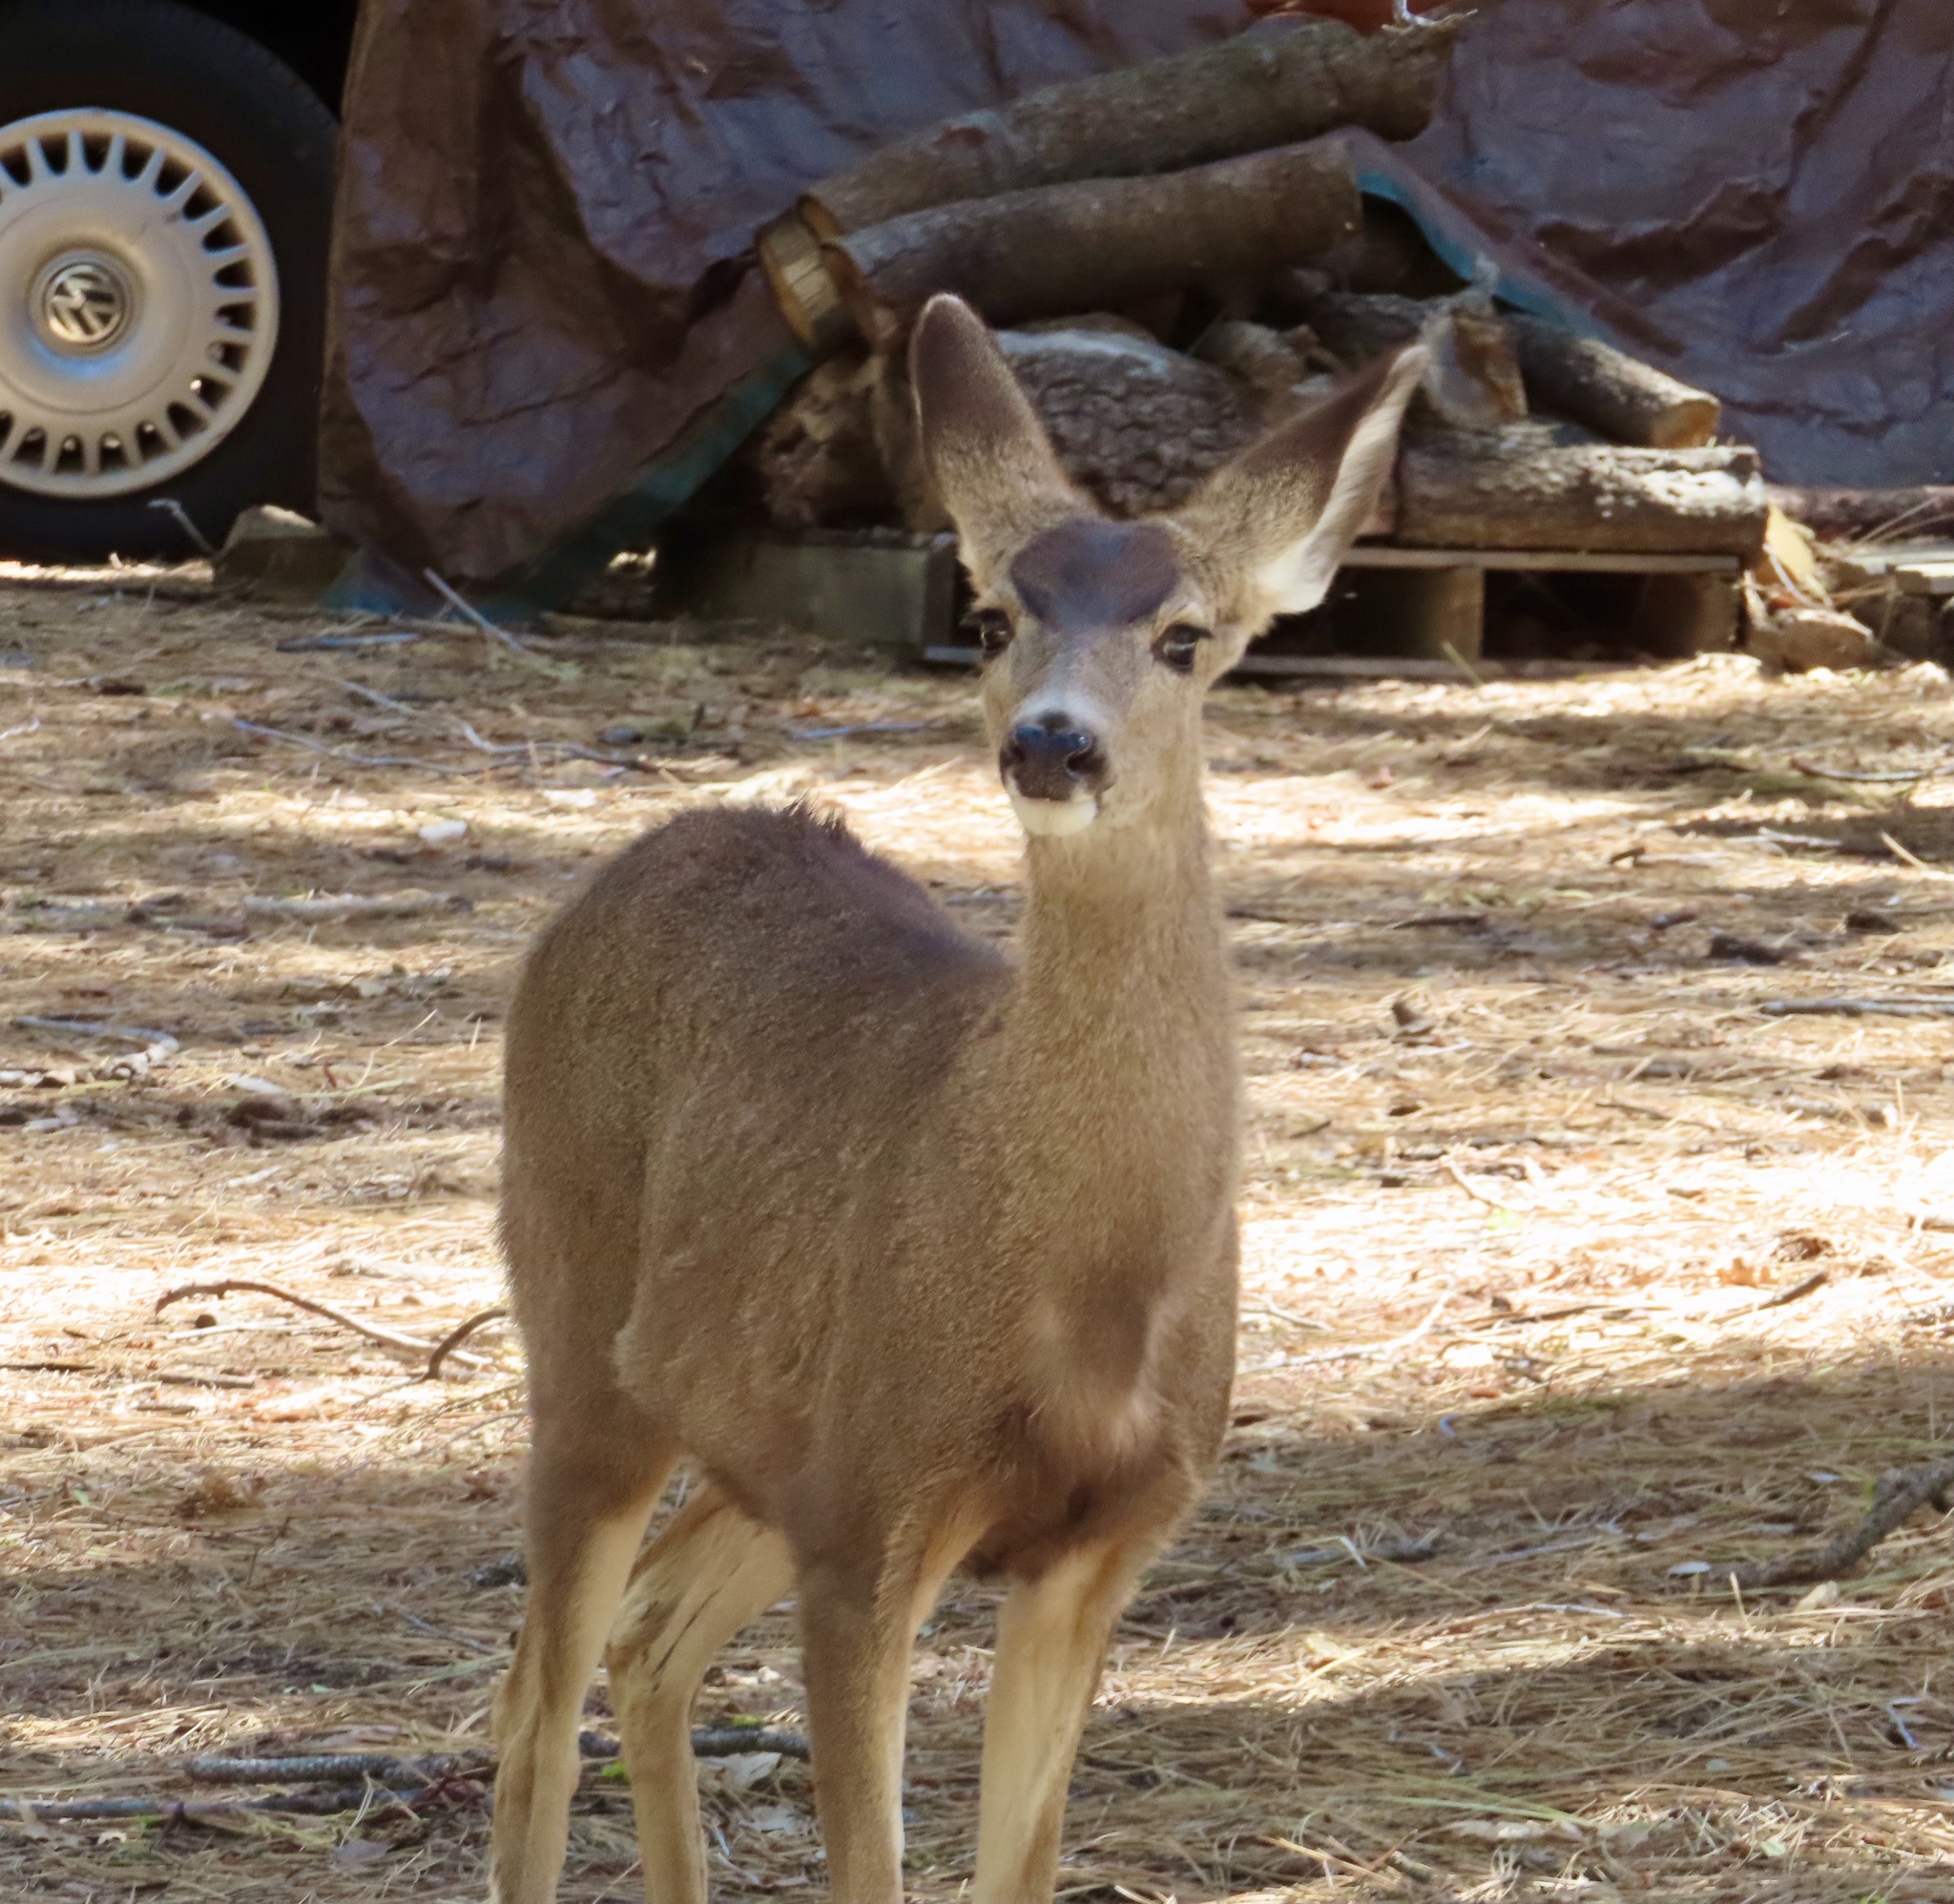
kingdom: Animalia
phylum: Chordata
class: Mammalia
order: Artiodactyla
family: Cervidae
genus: Odocoileus
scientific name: Odocoileus hemionus
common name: Mule deer
